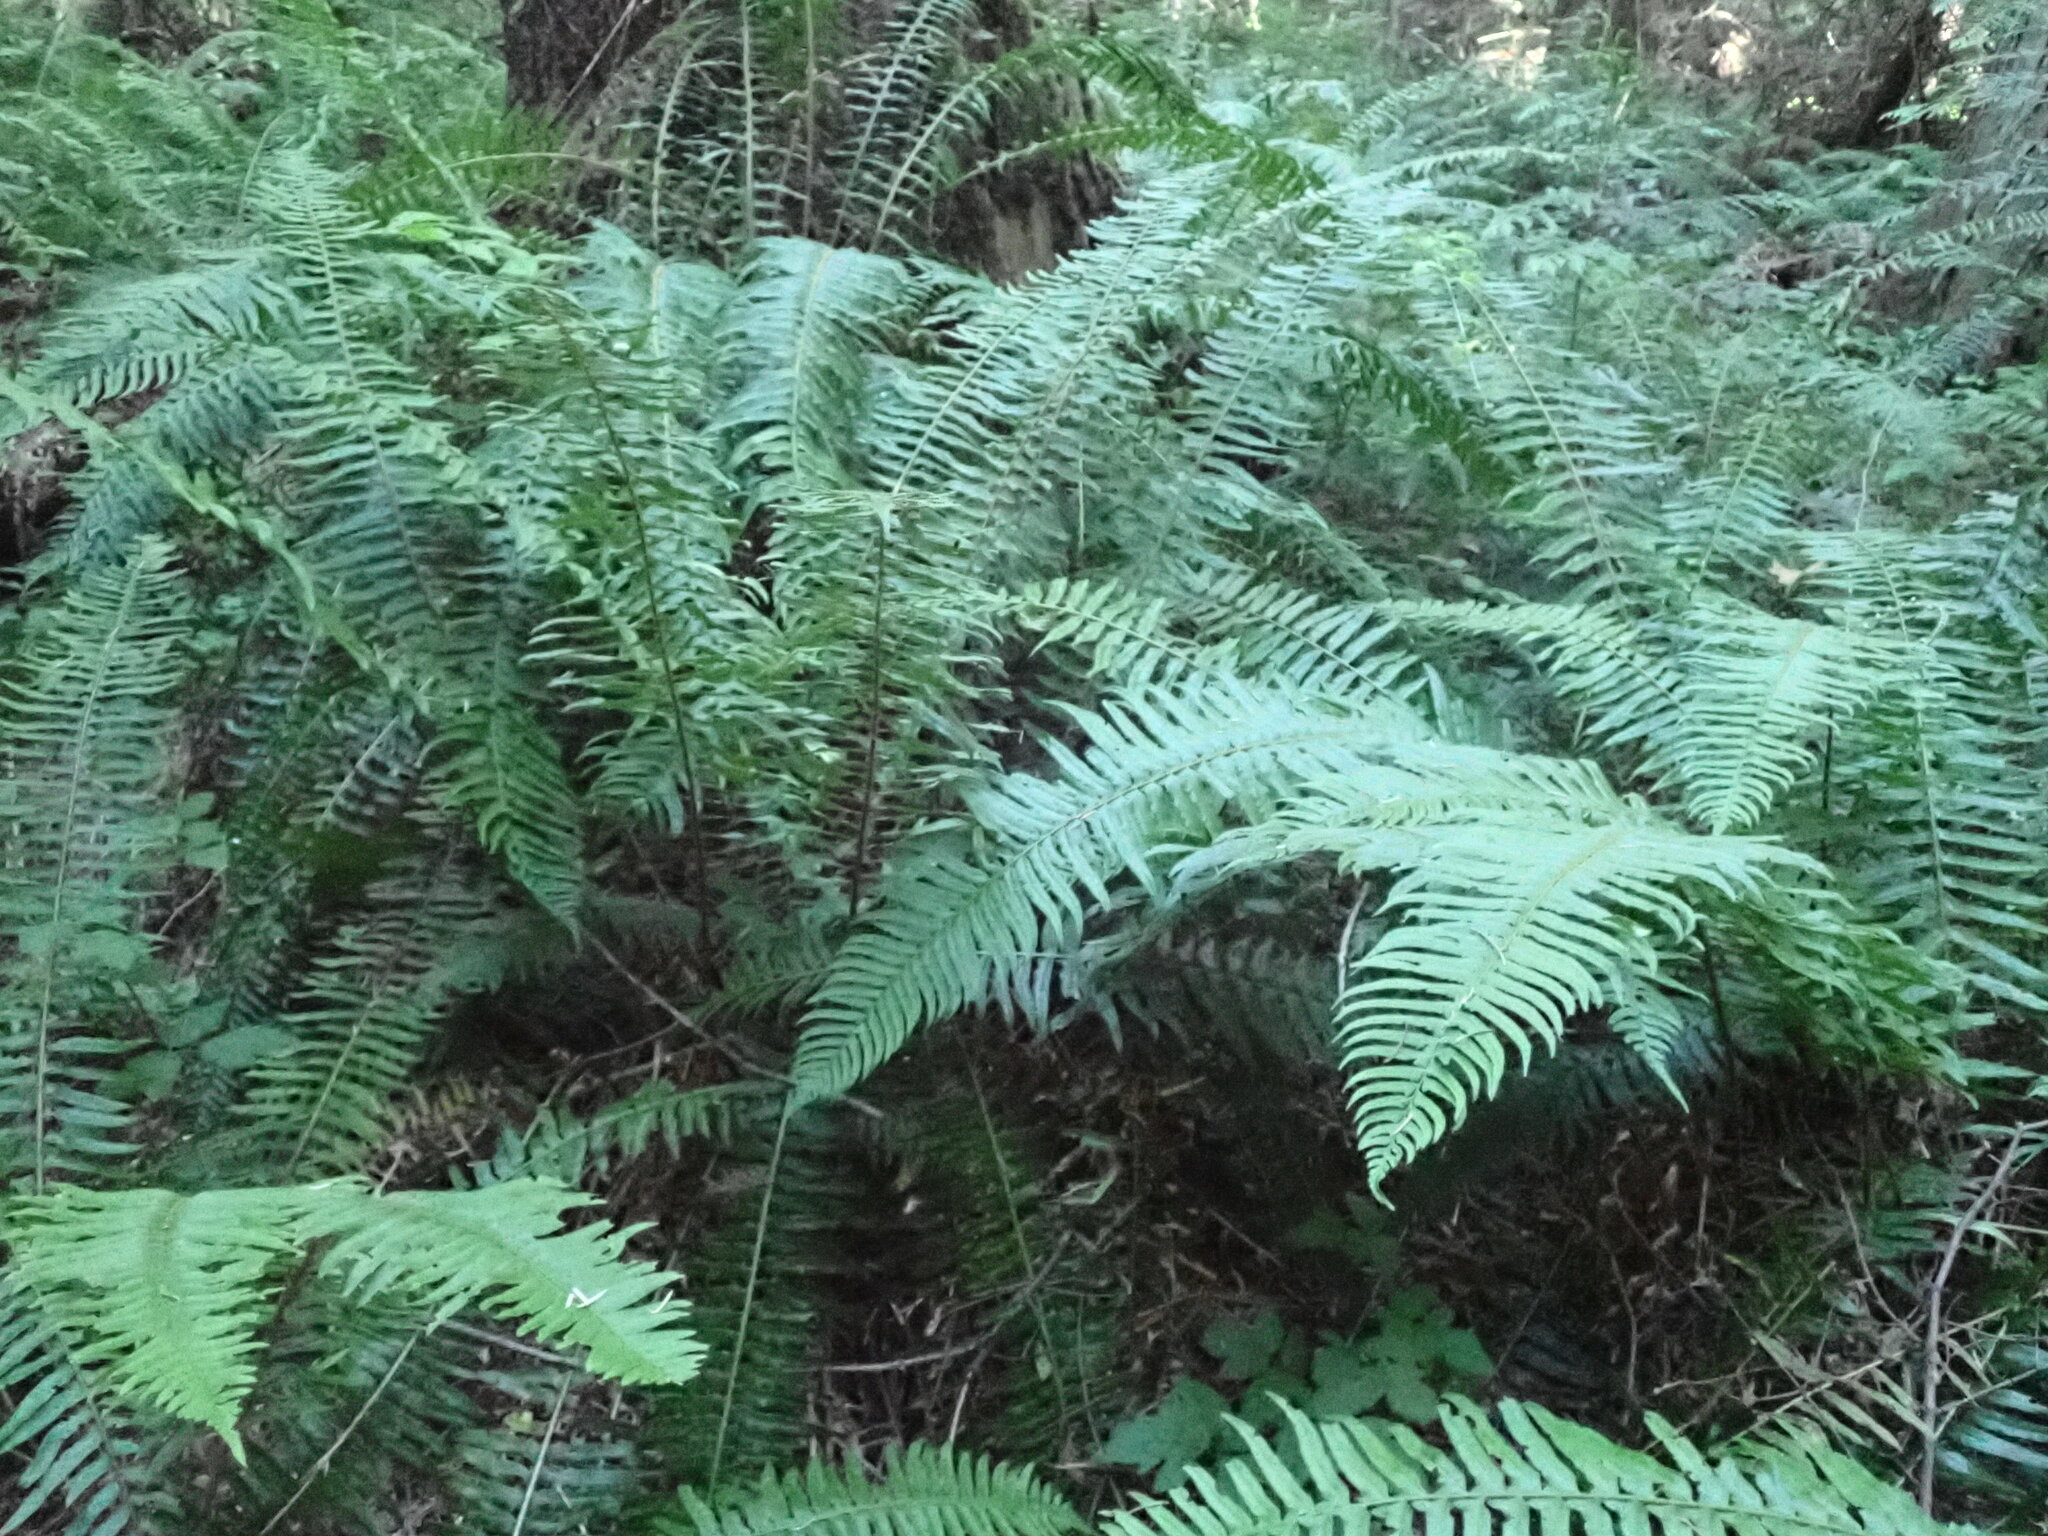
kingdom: Plantae
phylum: Tracheophyta
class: Polypodiopsida
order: Polypodiales
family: Dryopteridaceae
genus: Polystichum
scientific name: Polystichum munitum
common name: Western sword-fern
